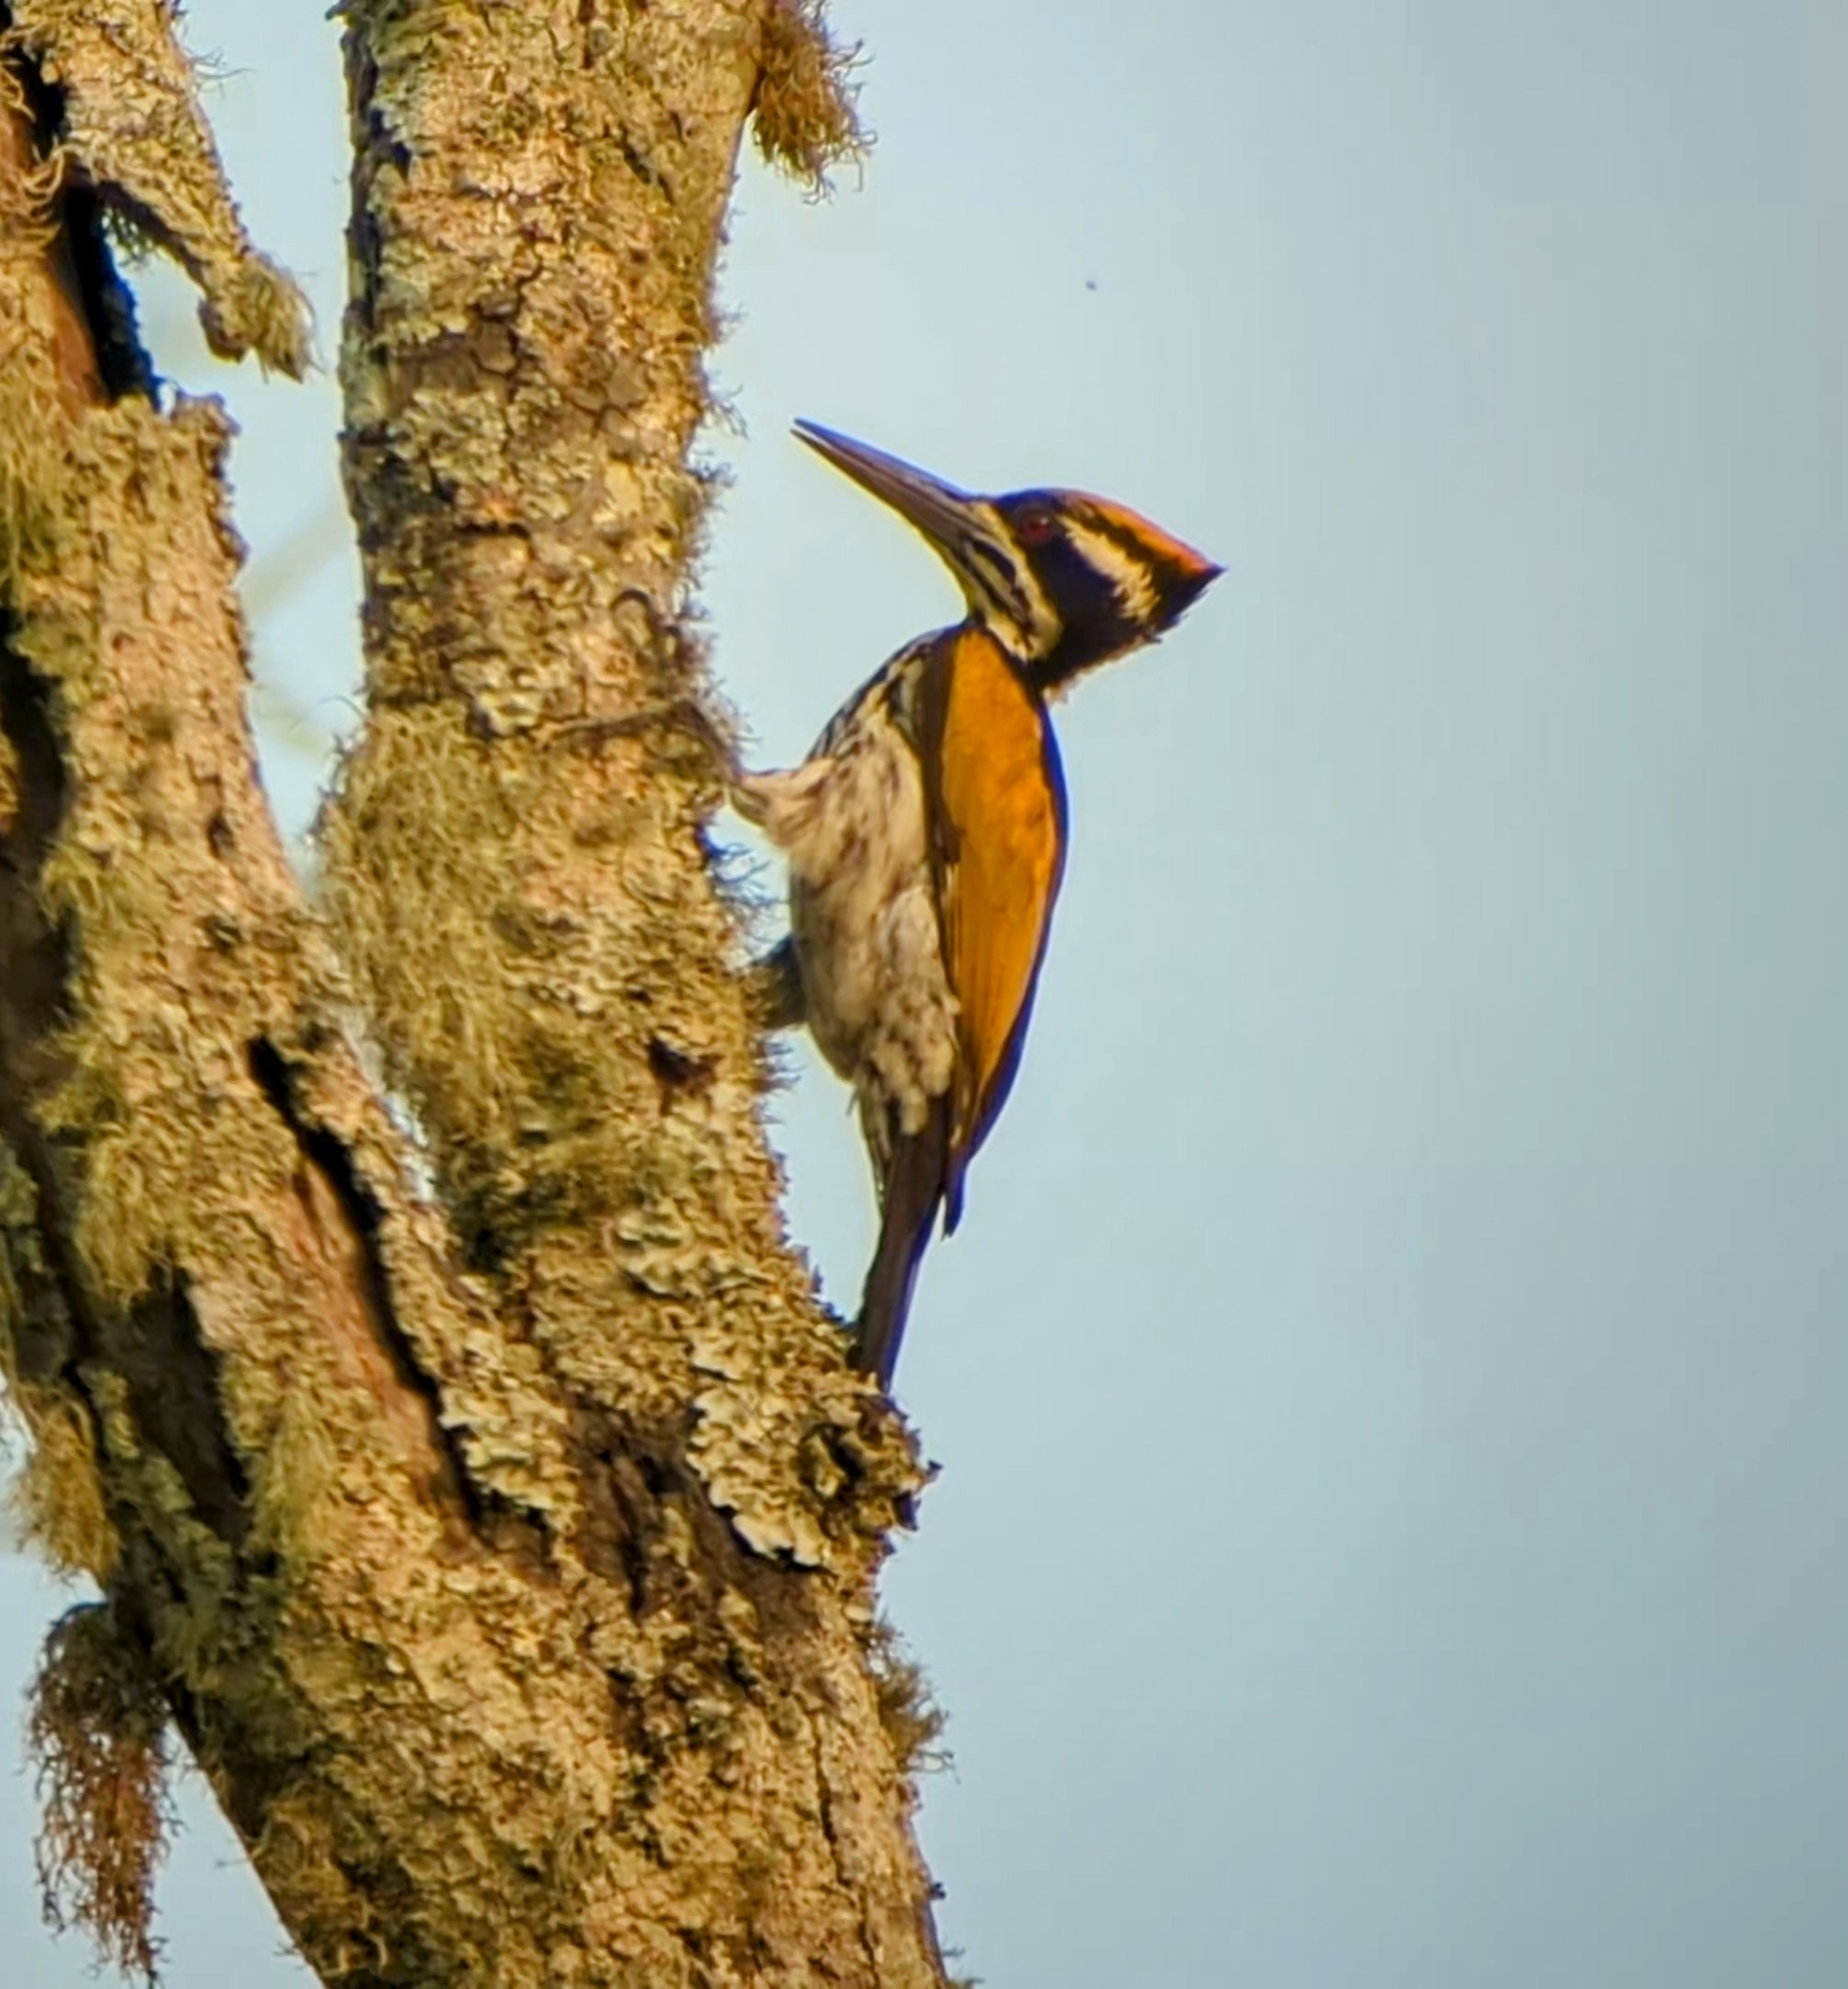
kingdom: Animalia
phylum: Chordata
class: Aves
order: Piciformes
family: Picidae
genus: Chrysocolaptes
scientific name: Chrysocolaptes festivus
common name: White-naped woodpecker
